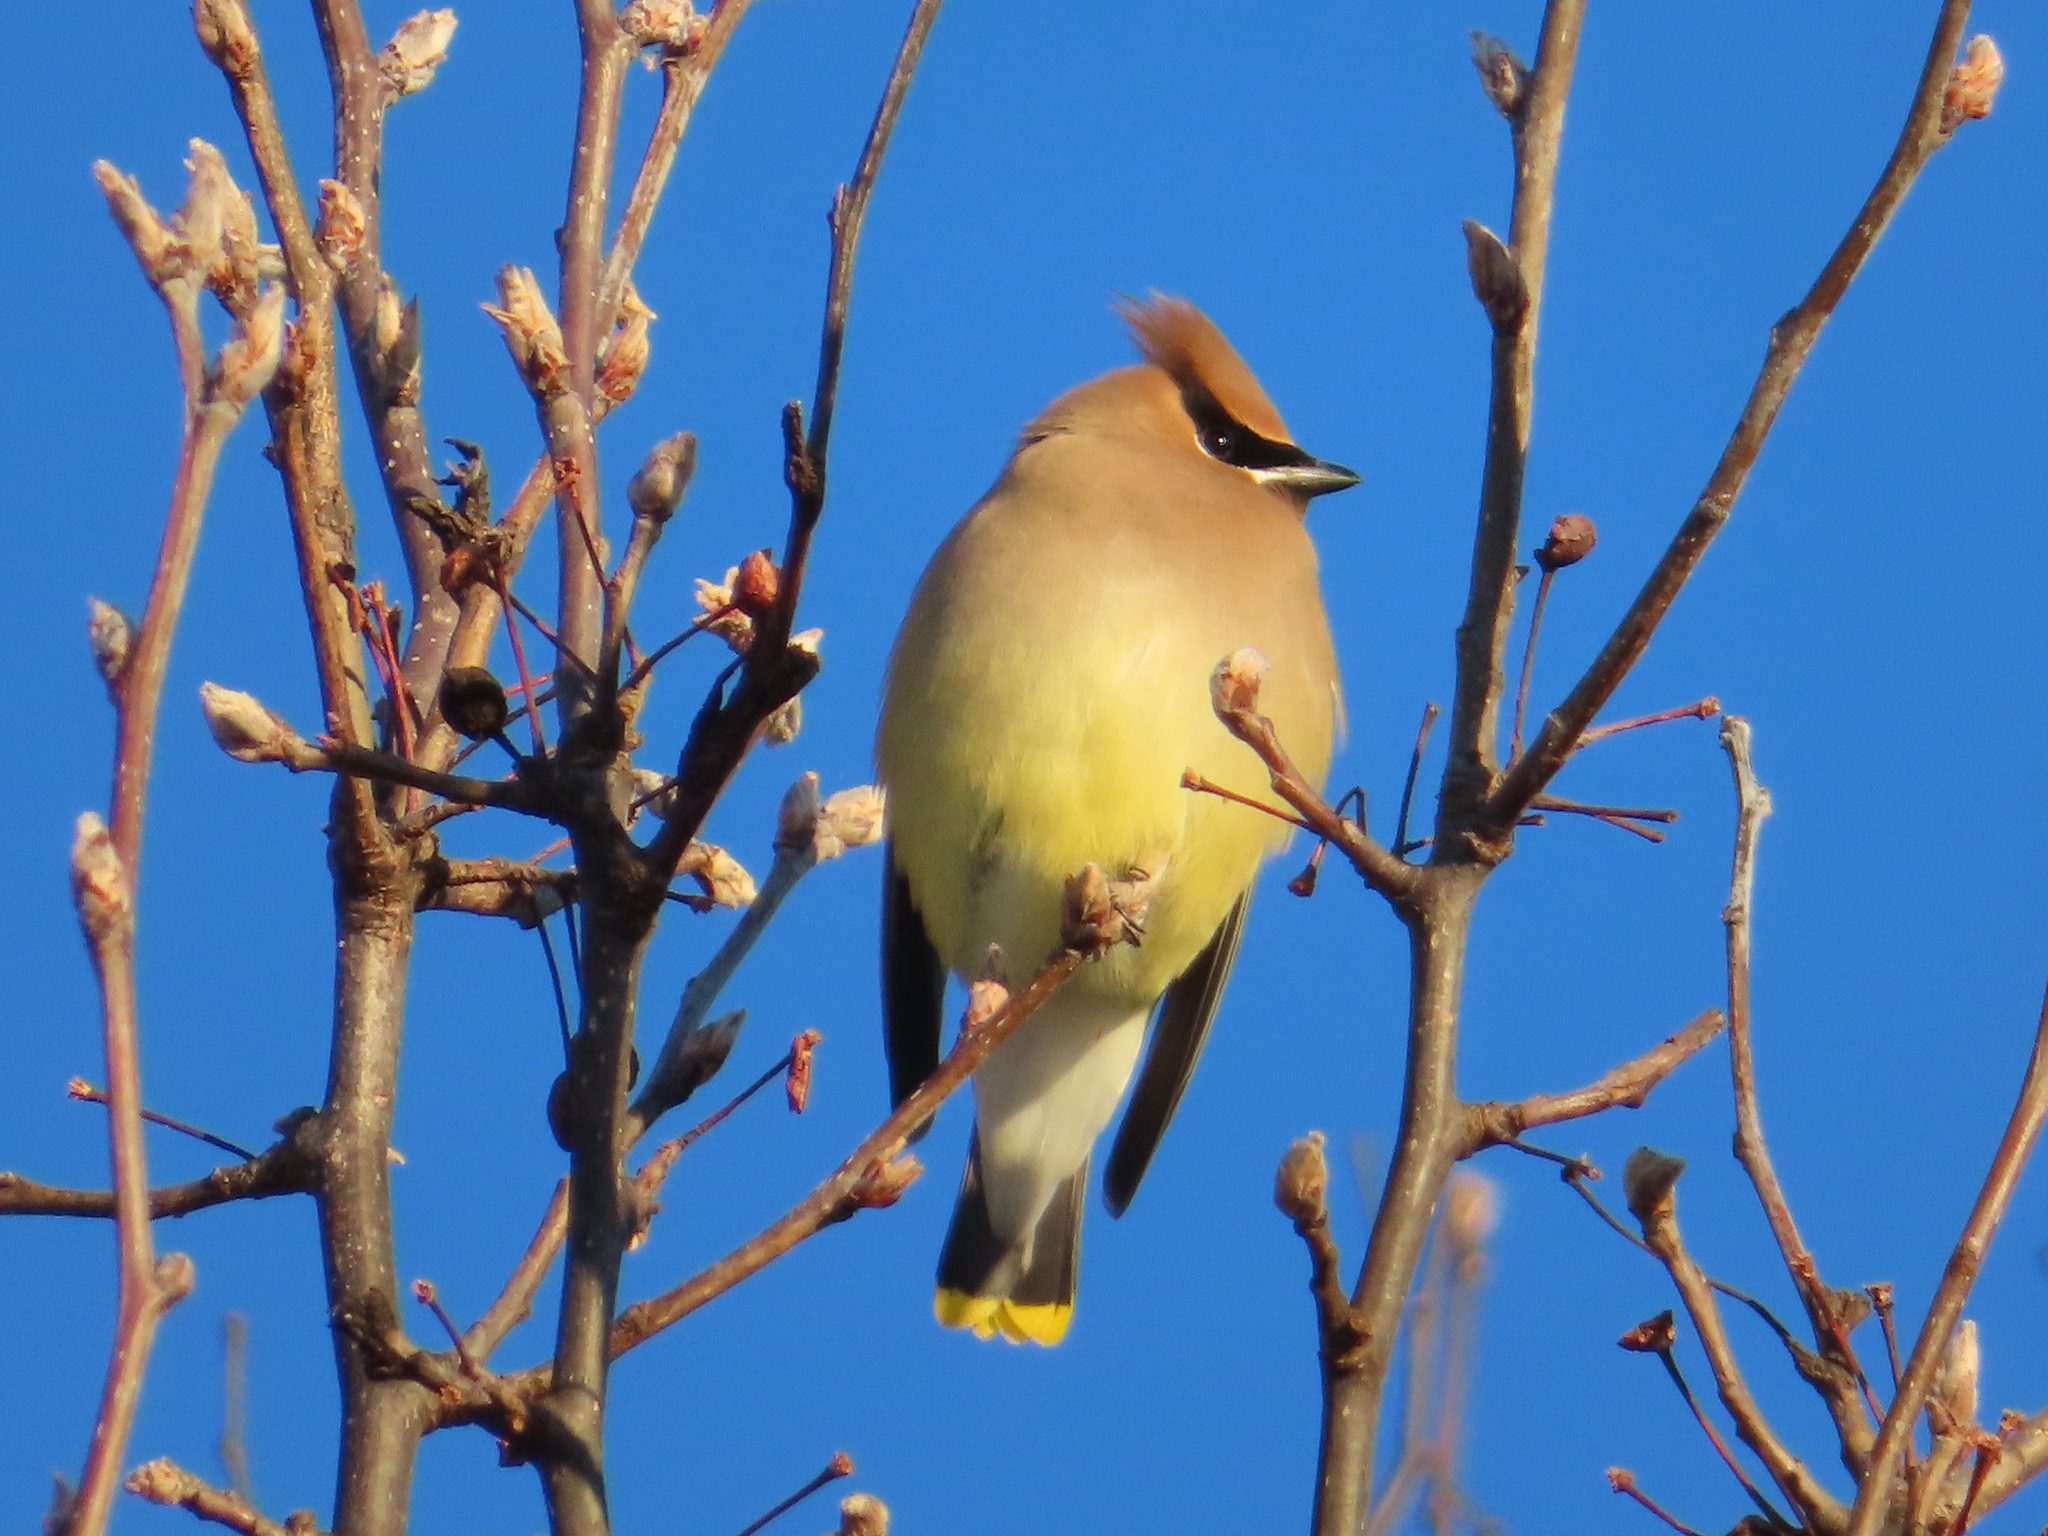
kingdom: Animalia
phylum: Chordata
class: Aves
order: Passeriformes
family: Bombycillidae
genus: Bombycilla
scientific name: Bombycilla cedrorum
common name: Cedar waxwing
